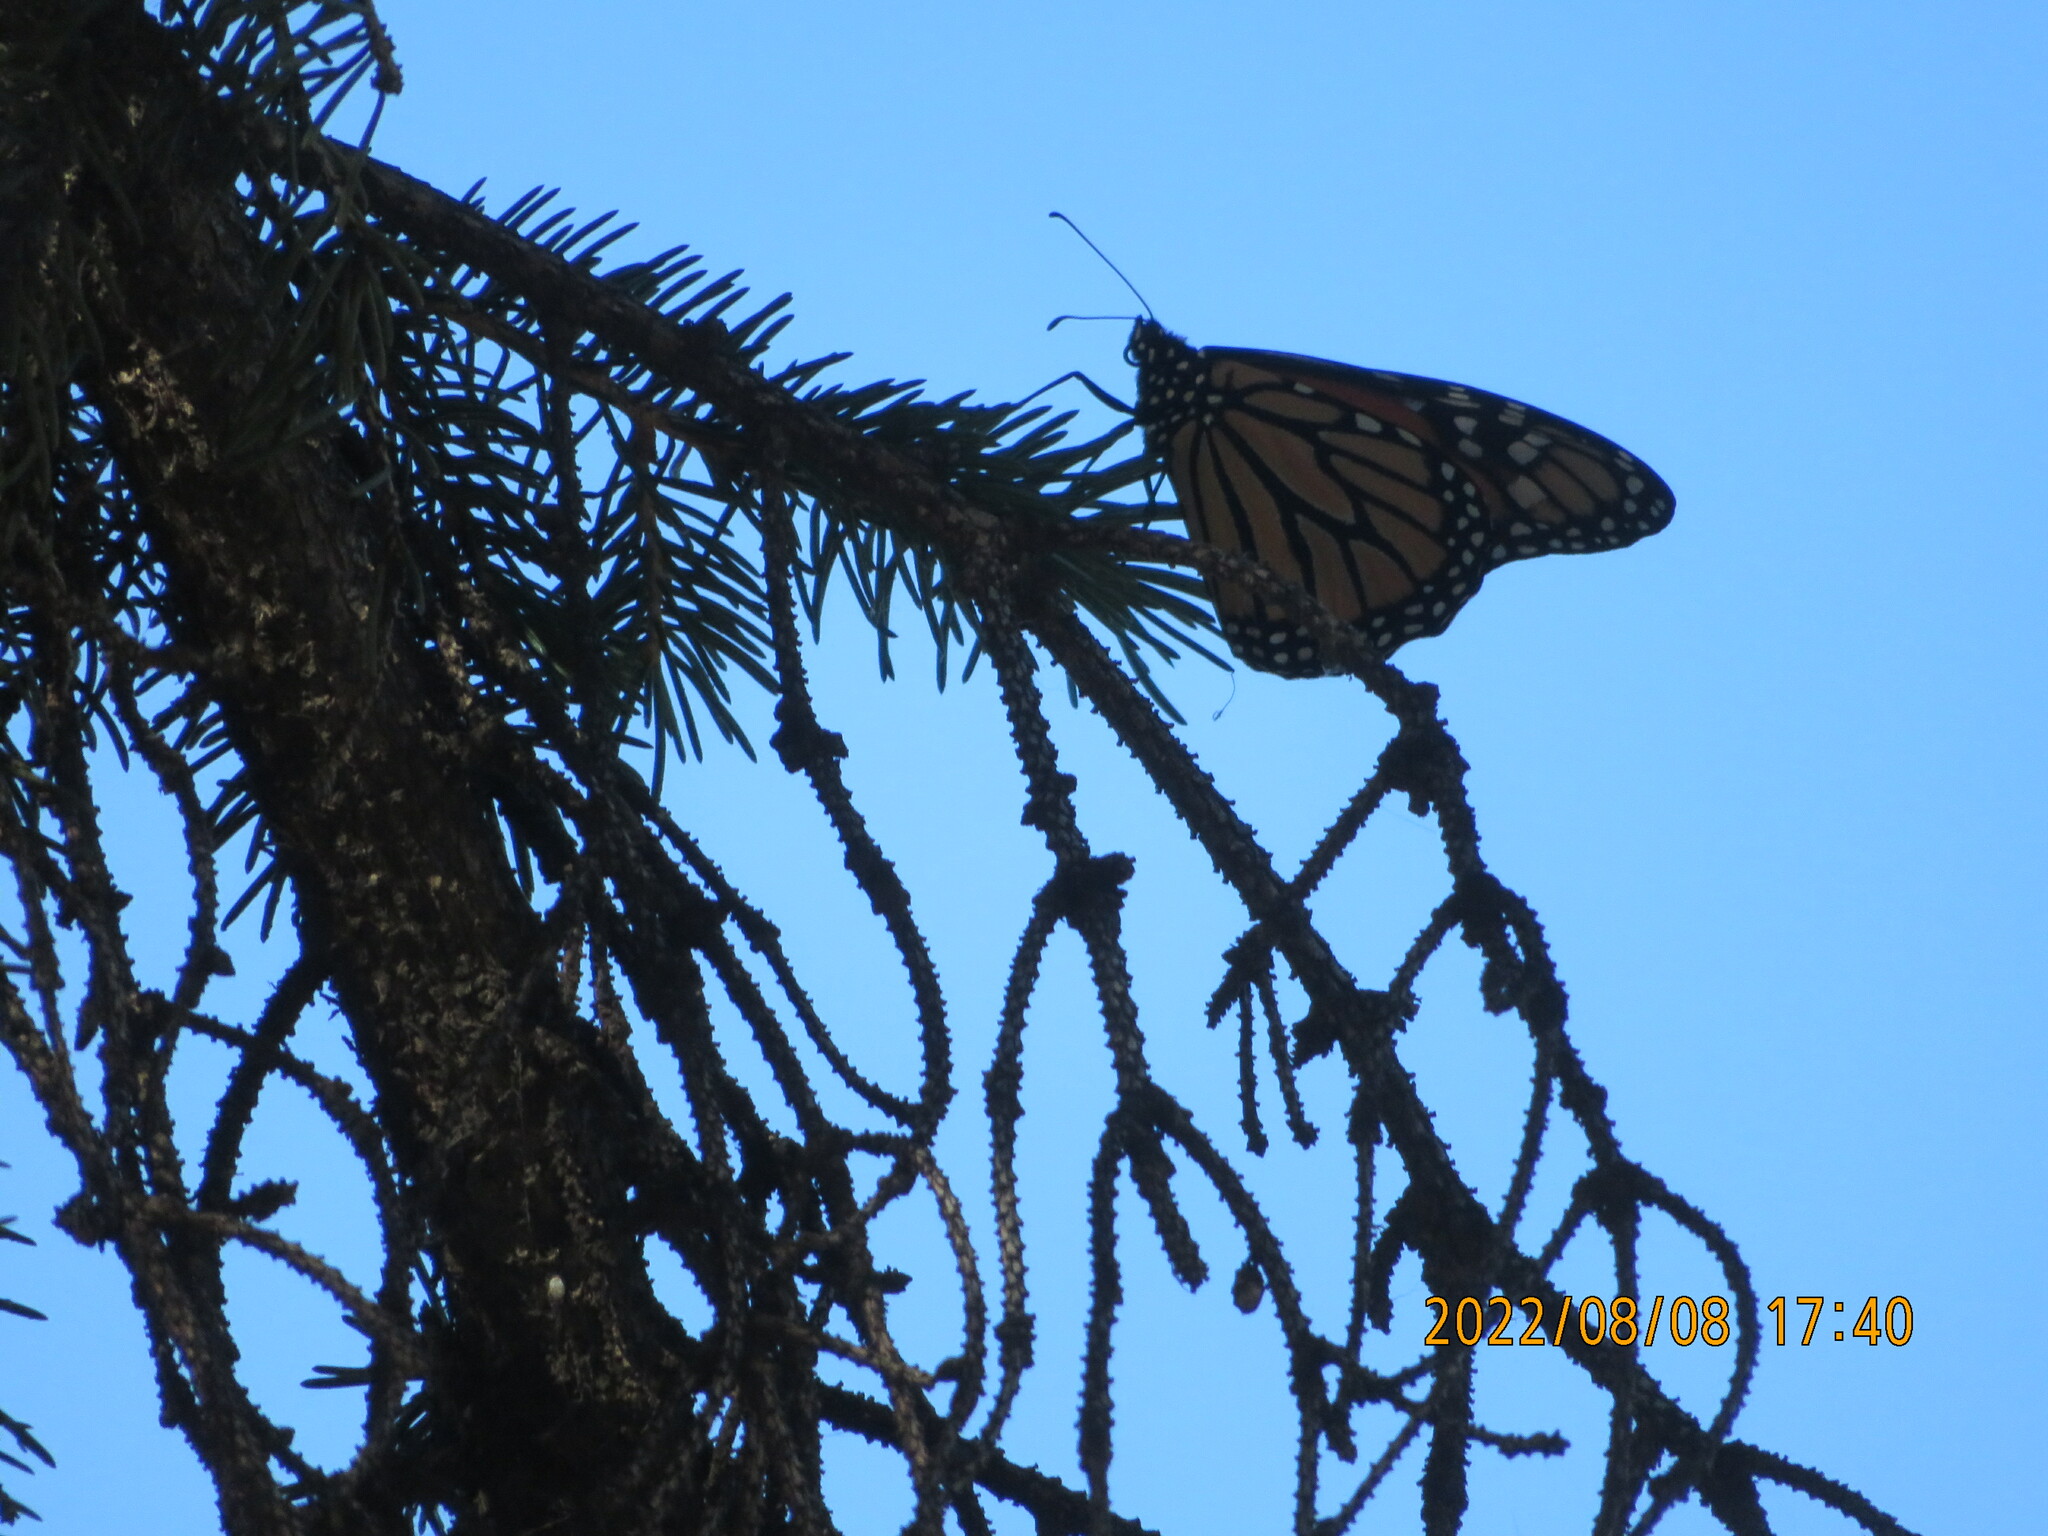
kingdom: Animalia
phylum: Arthropoda
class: Insecta
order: Lepidoptera
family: Nymphalidae
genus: Danaus
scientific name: Danaus plexippus
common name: Monarch
